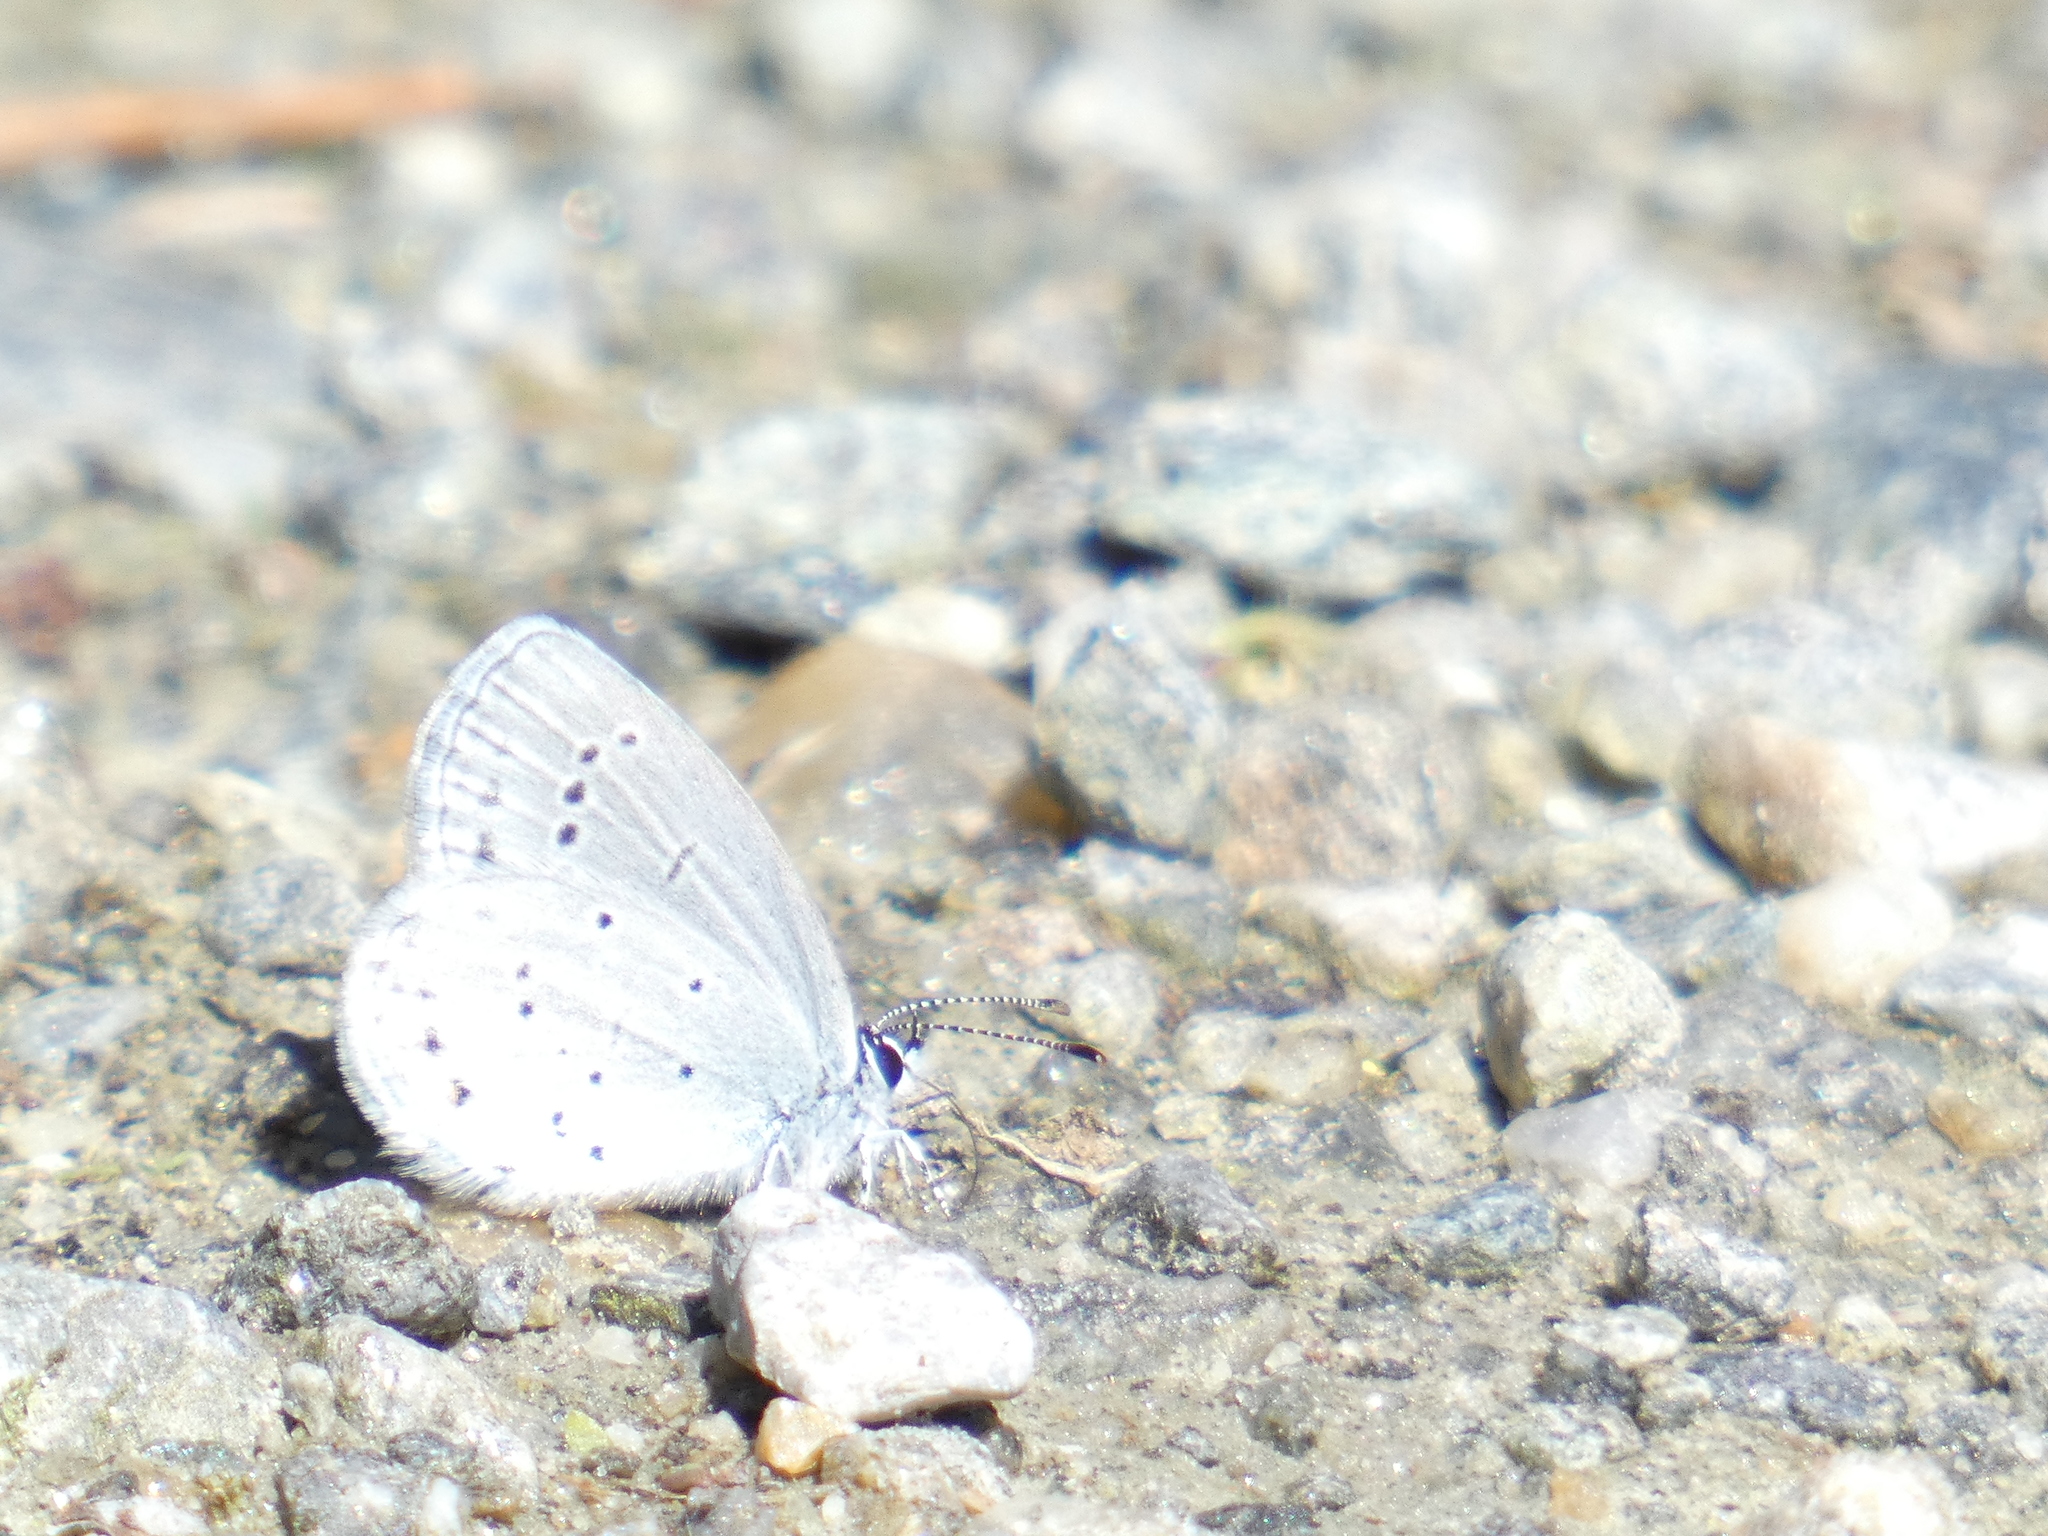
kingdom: Animalia
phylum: Arthropoda
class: Insecta
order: Lepidoptera
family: Lycaenidae
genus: Elkalyce
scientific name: Elkalyce alcetas
